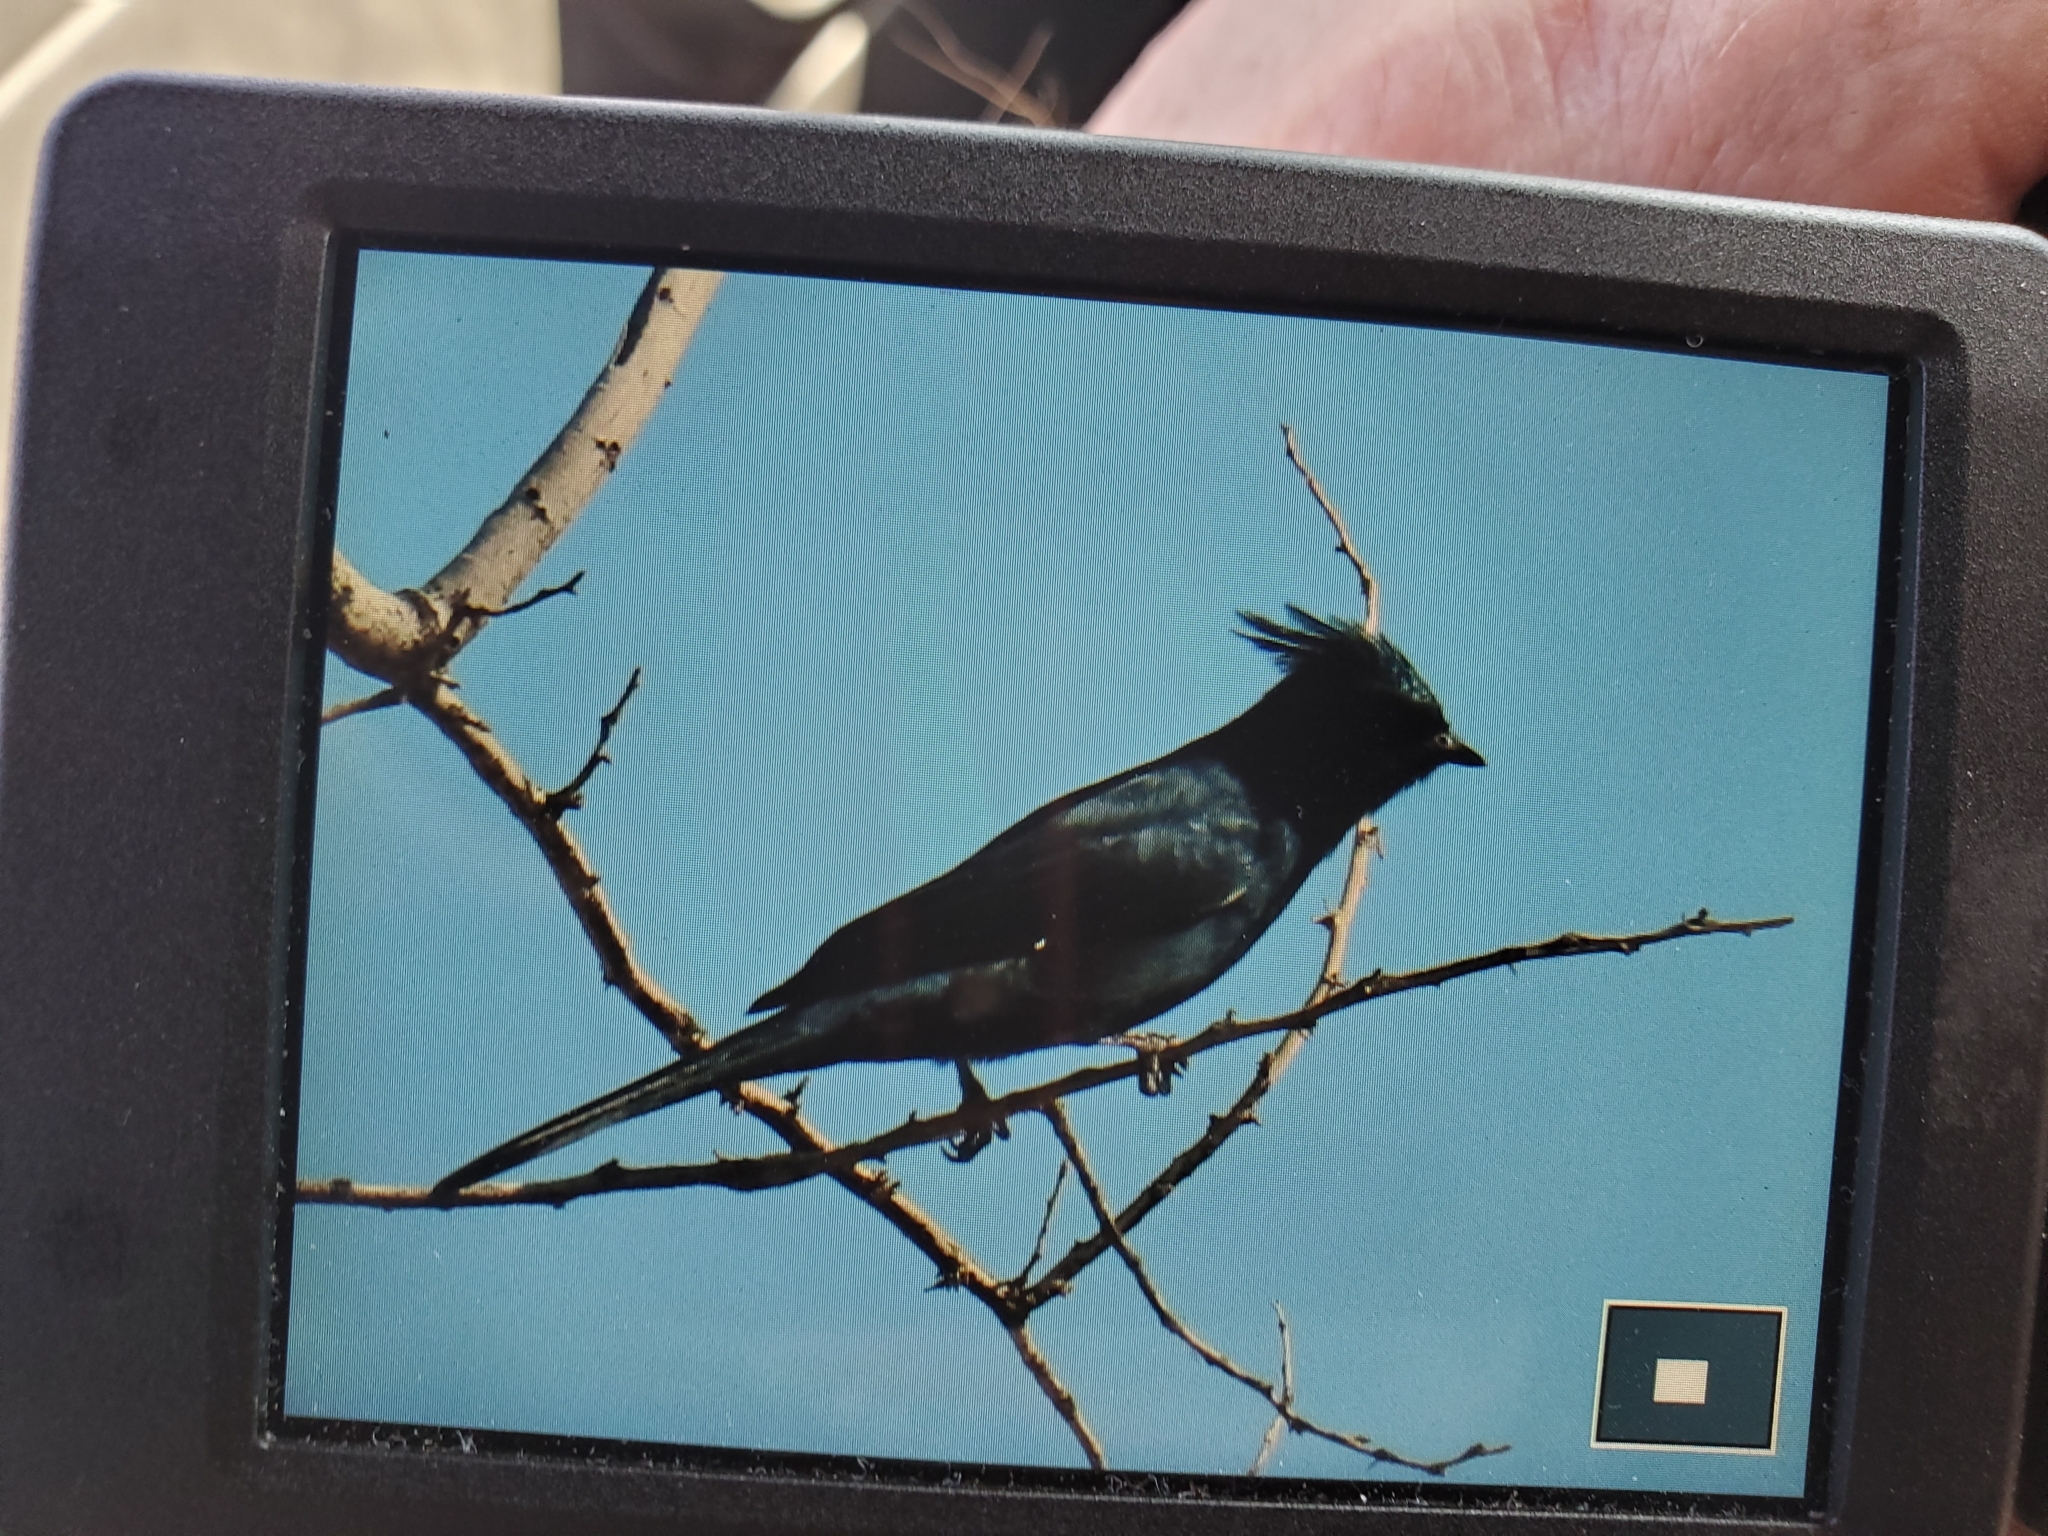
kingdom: Animalia
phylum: Chordata
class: Aves
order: Passeriformes
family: Ptilogonatidae
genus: Phainopepla
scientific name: Phainopepla nitens
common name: Phainopepla
